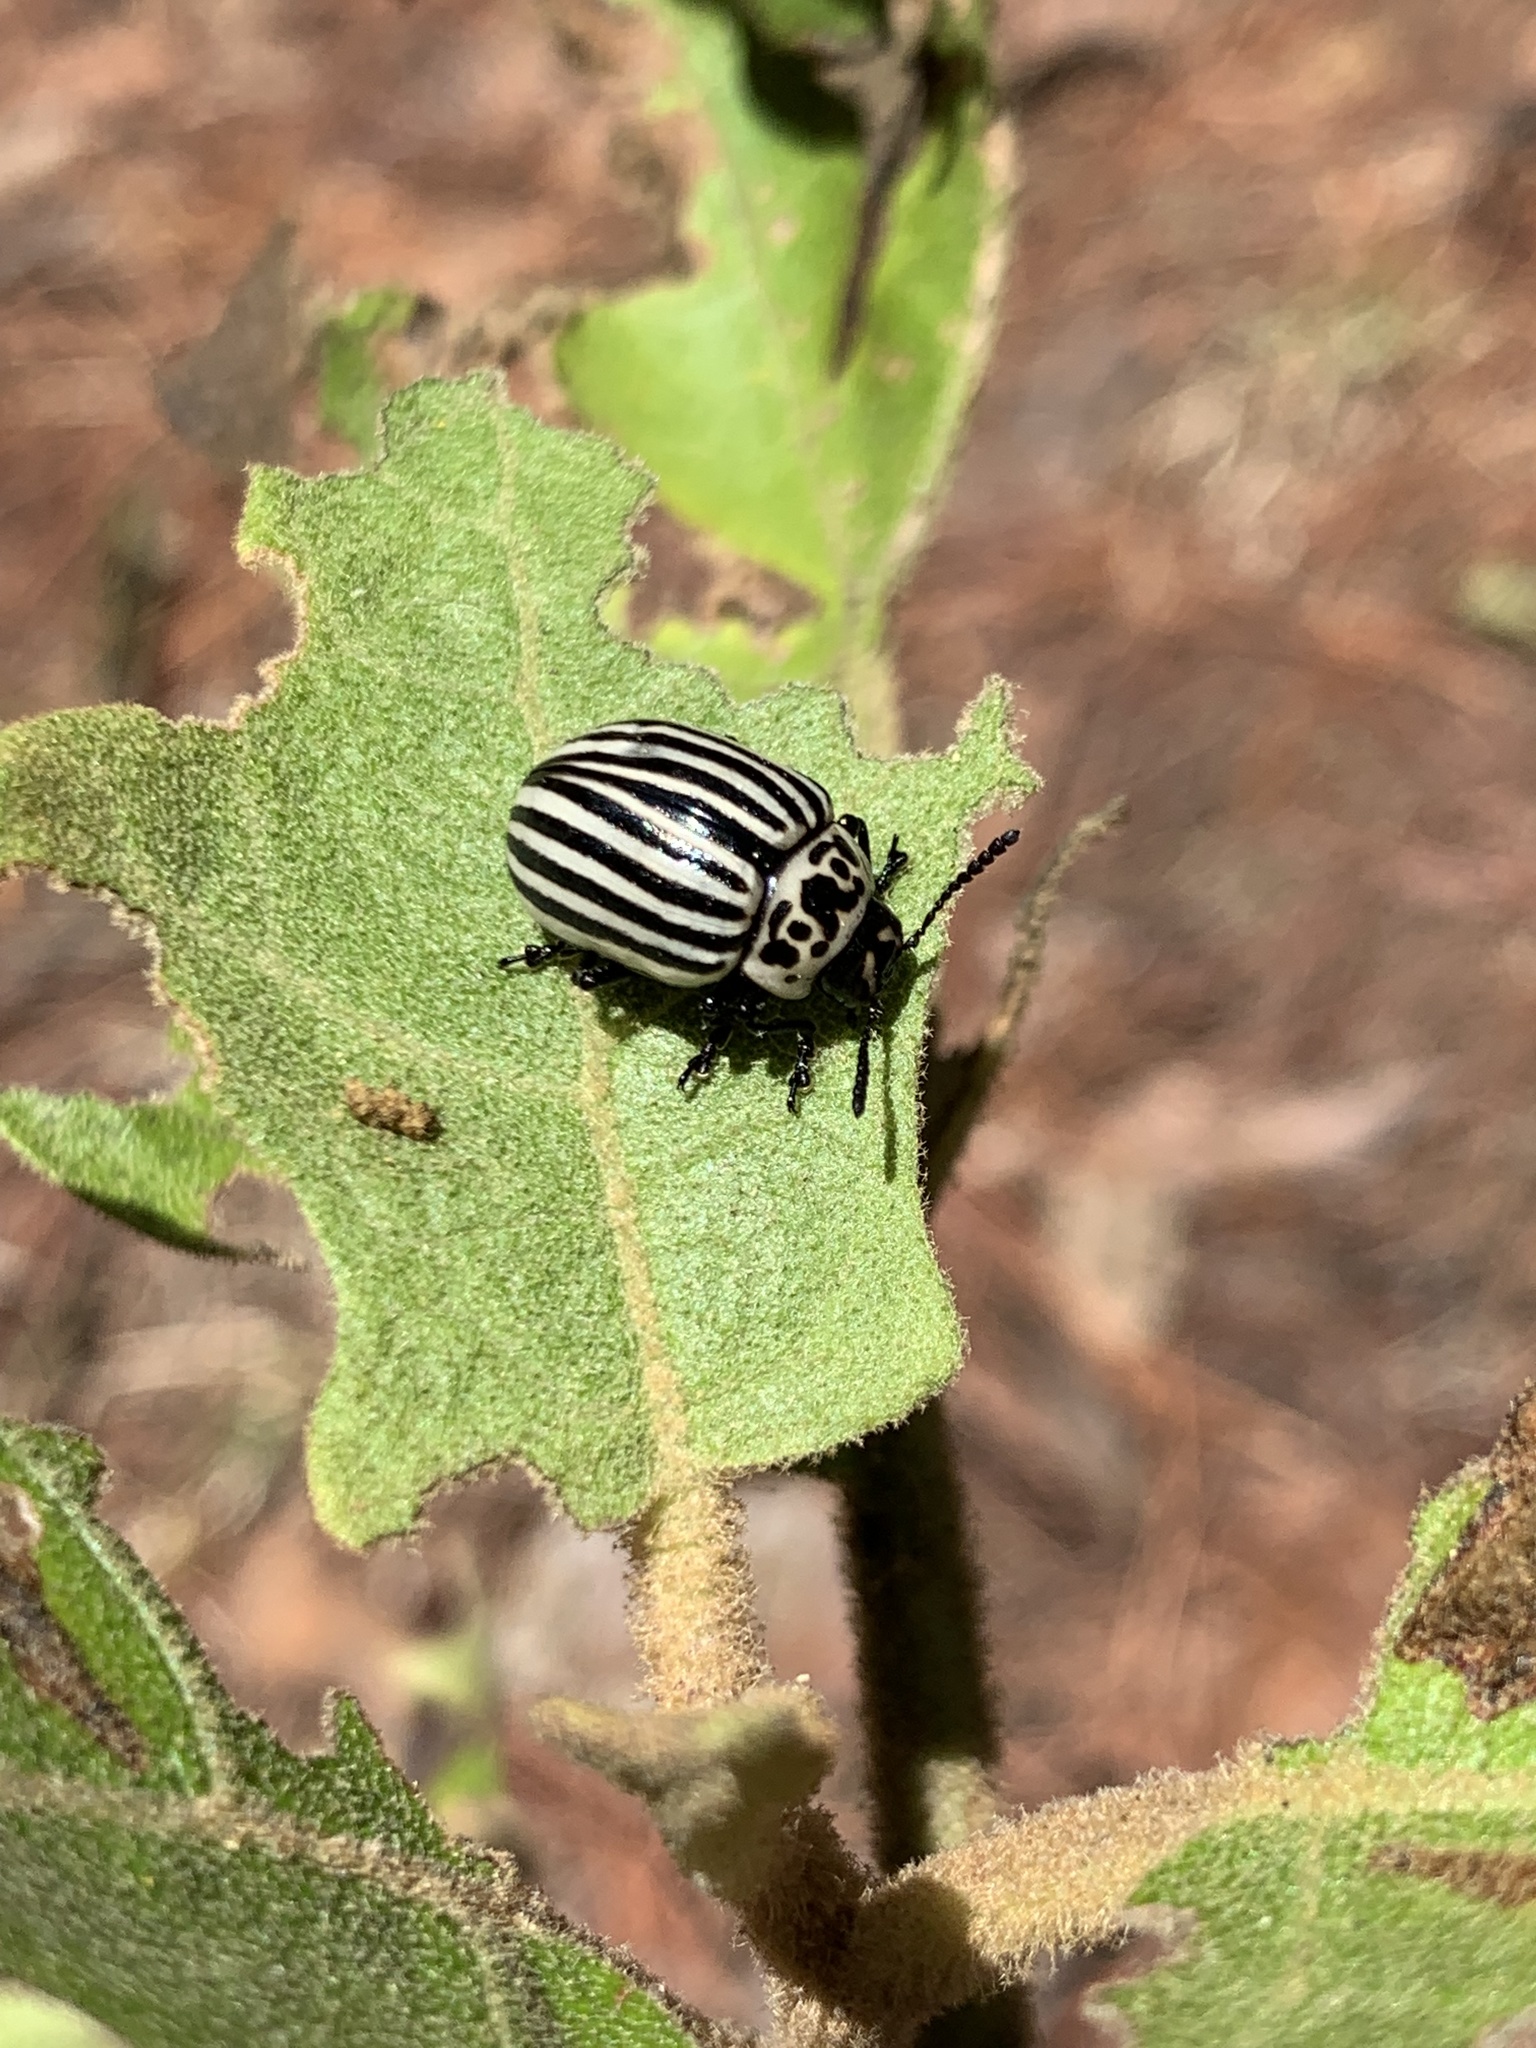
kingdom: Animalia
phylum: Arthropoda
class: Insecta
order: Coleoptera
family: Chrysomelidae
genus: Leptinotarsa
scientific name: Leptinotarsa
